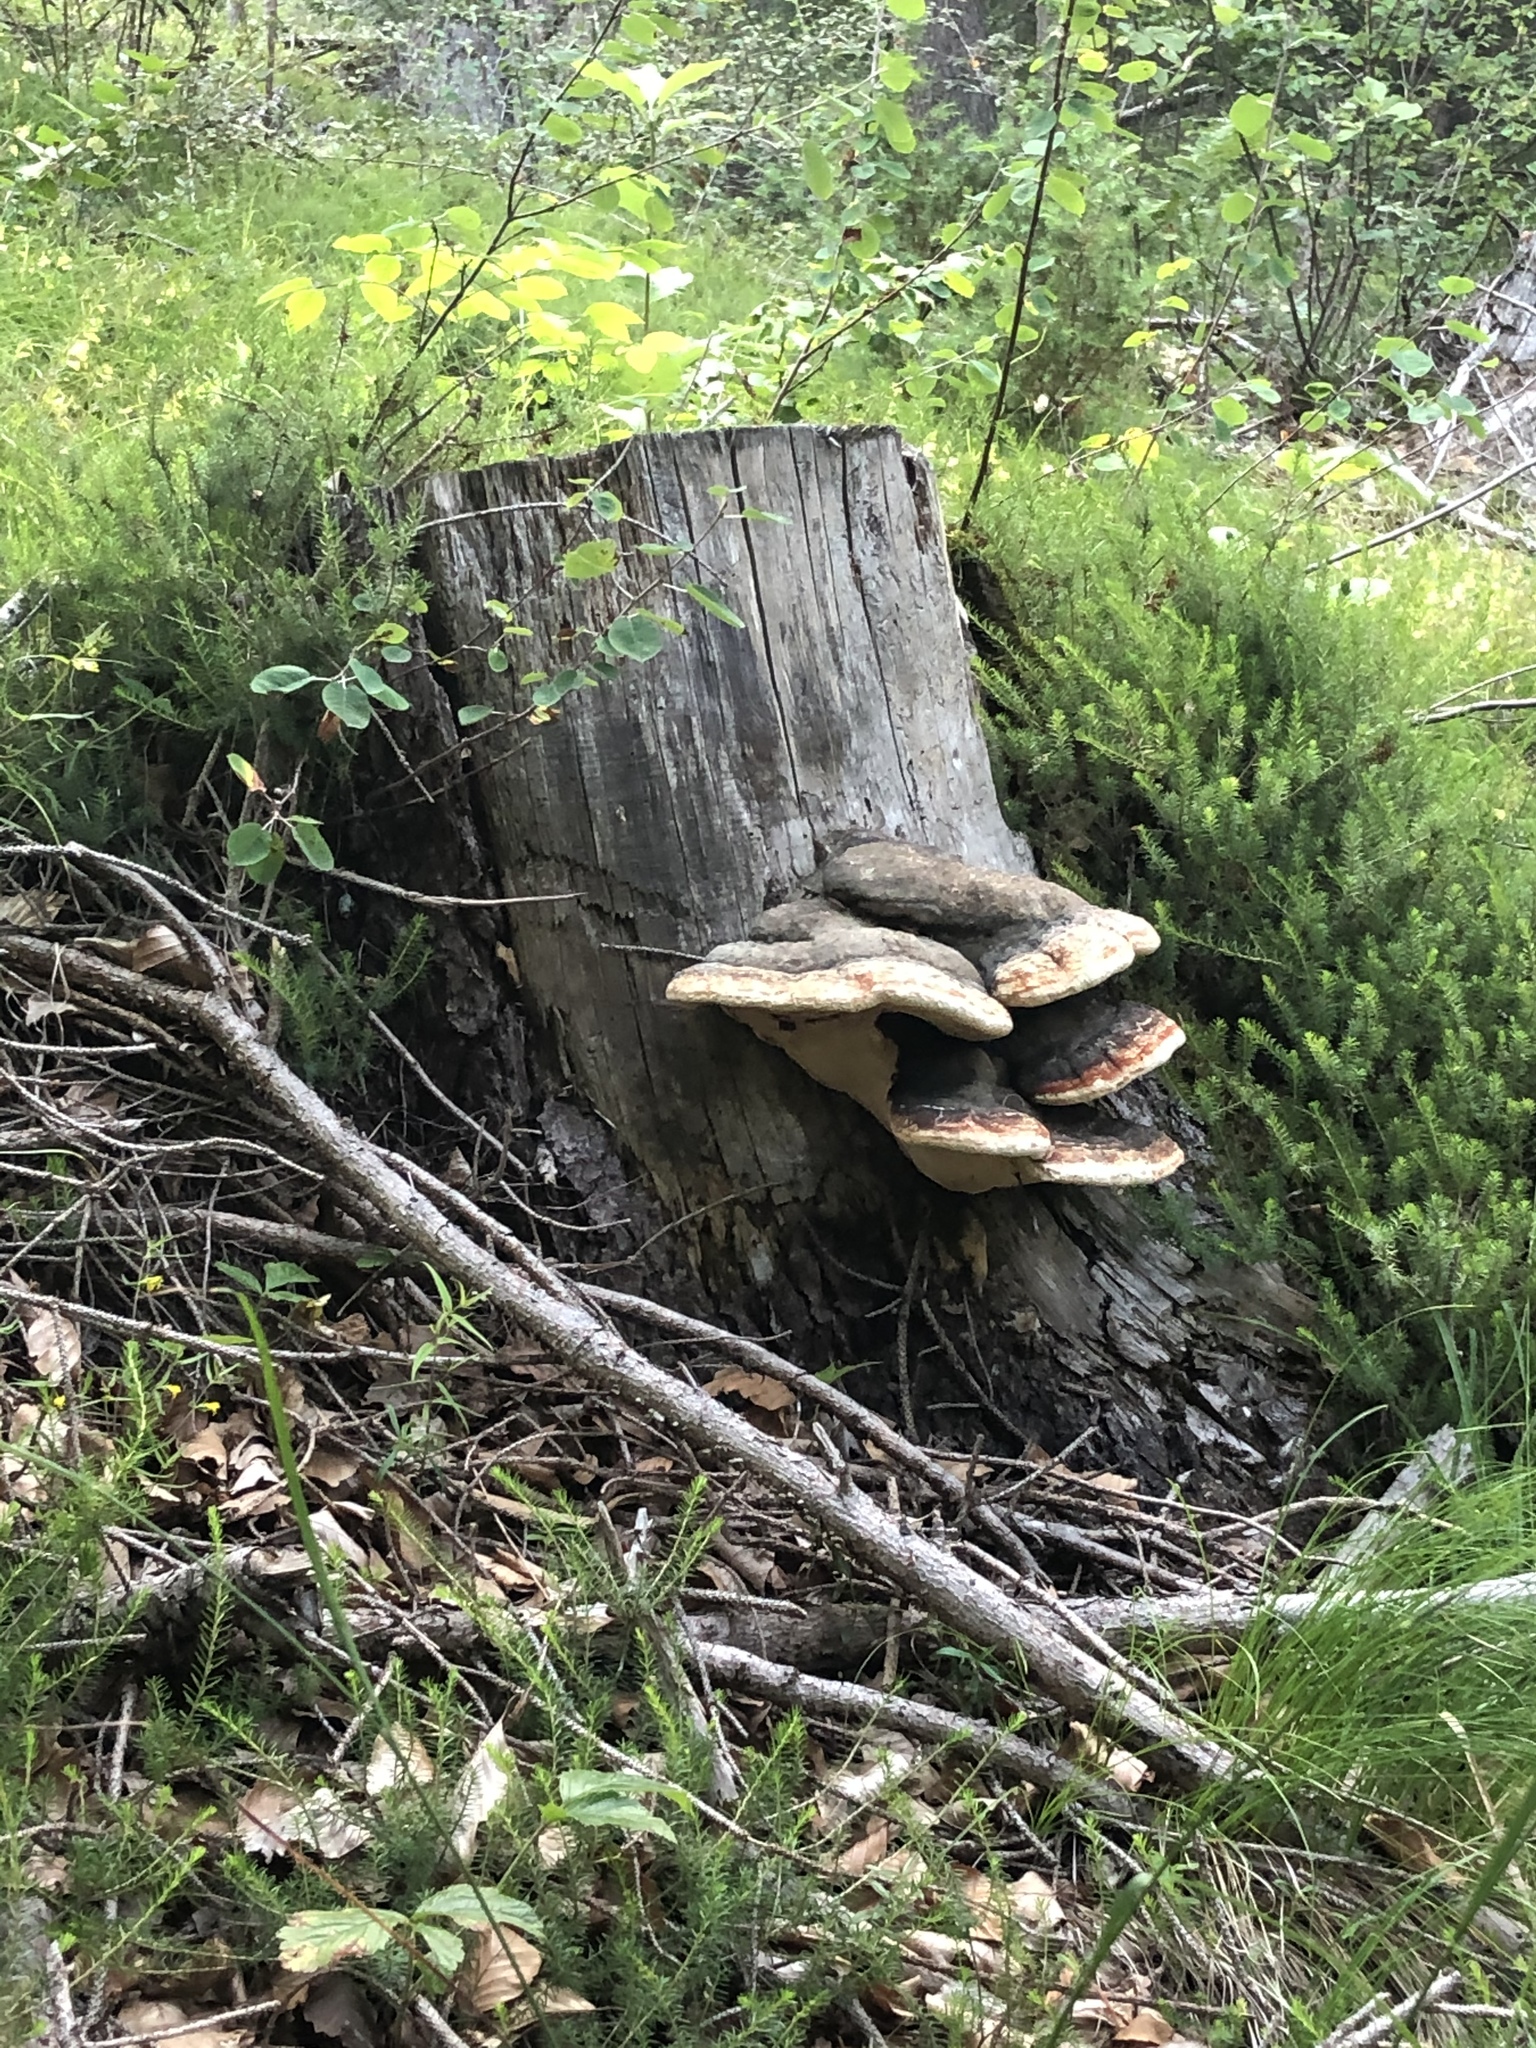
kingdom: Fungi
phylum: Basidiomycota
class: Agaricomycetes
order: Polyporales
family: Fomitopsidaceae
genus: Fomitopsis
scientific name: Fomitopsis pinicola
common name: Red-belted bracket
